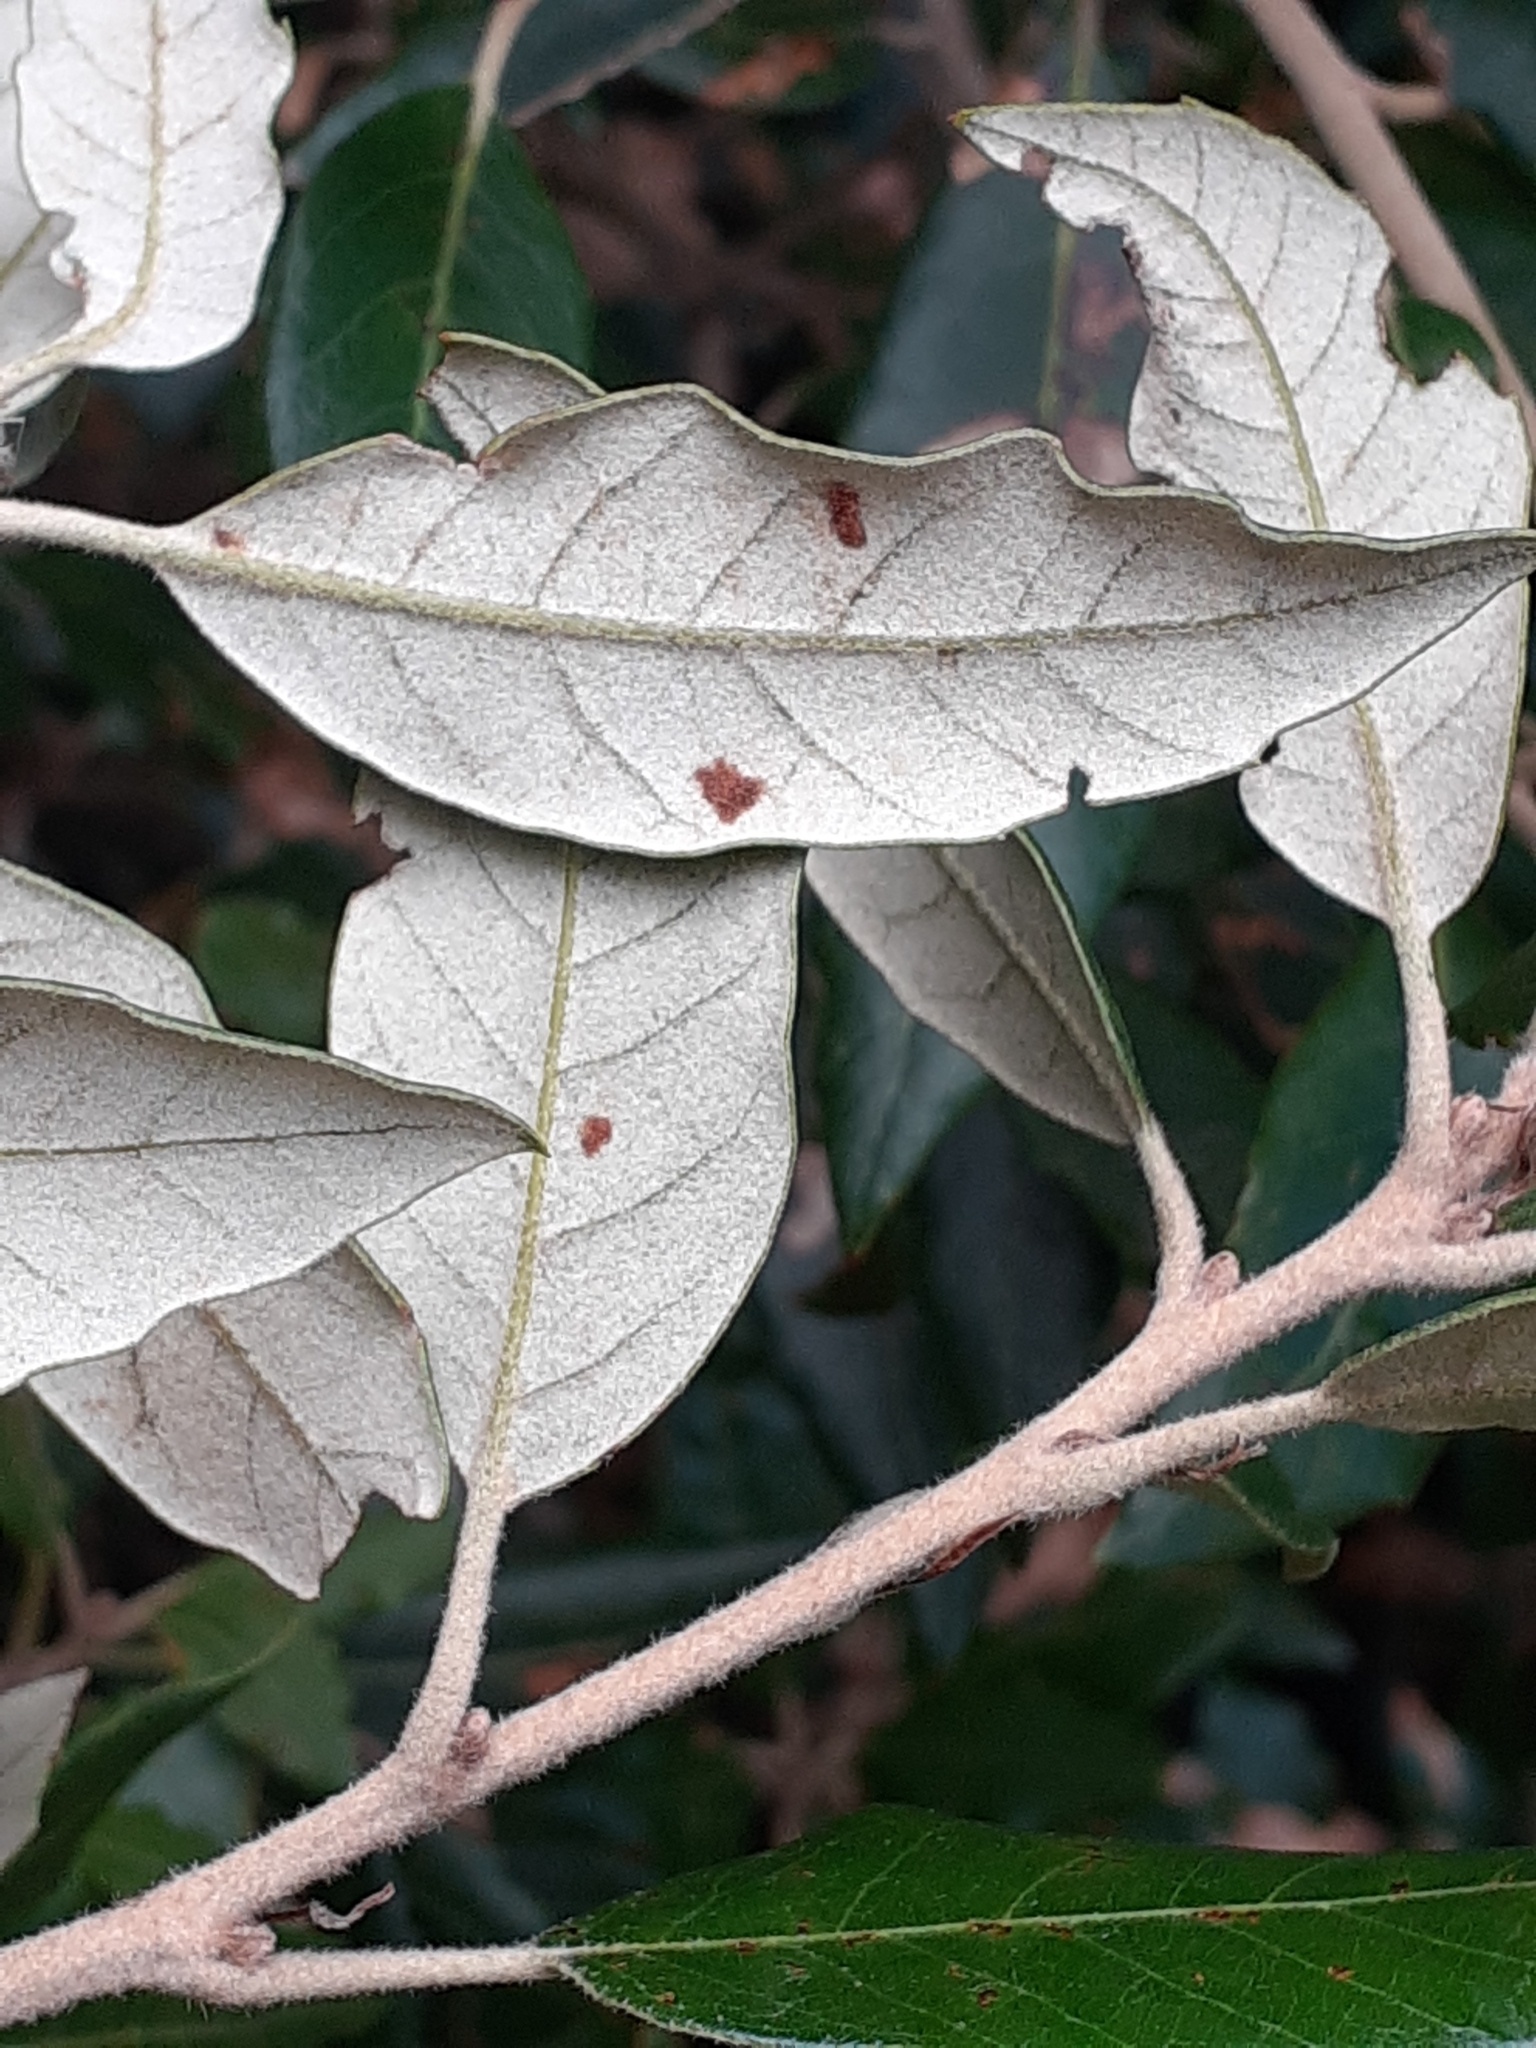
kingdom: Animalia
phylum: Arthropoda
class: Arachnida
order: Trombidiformes
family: Eriophyidae
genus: Aceria
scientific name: Aceria ilicis
